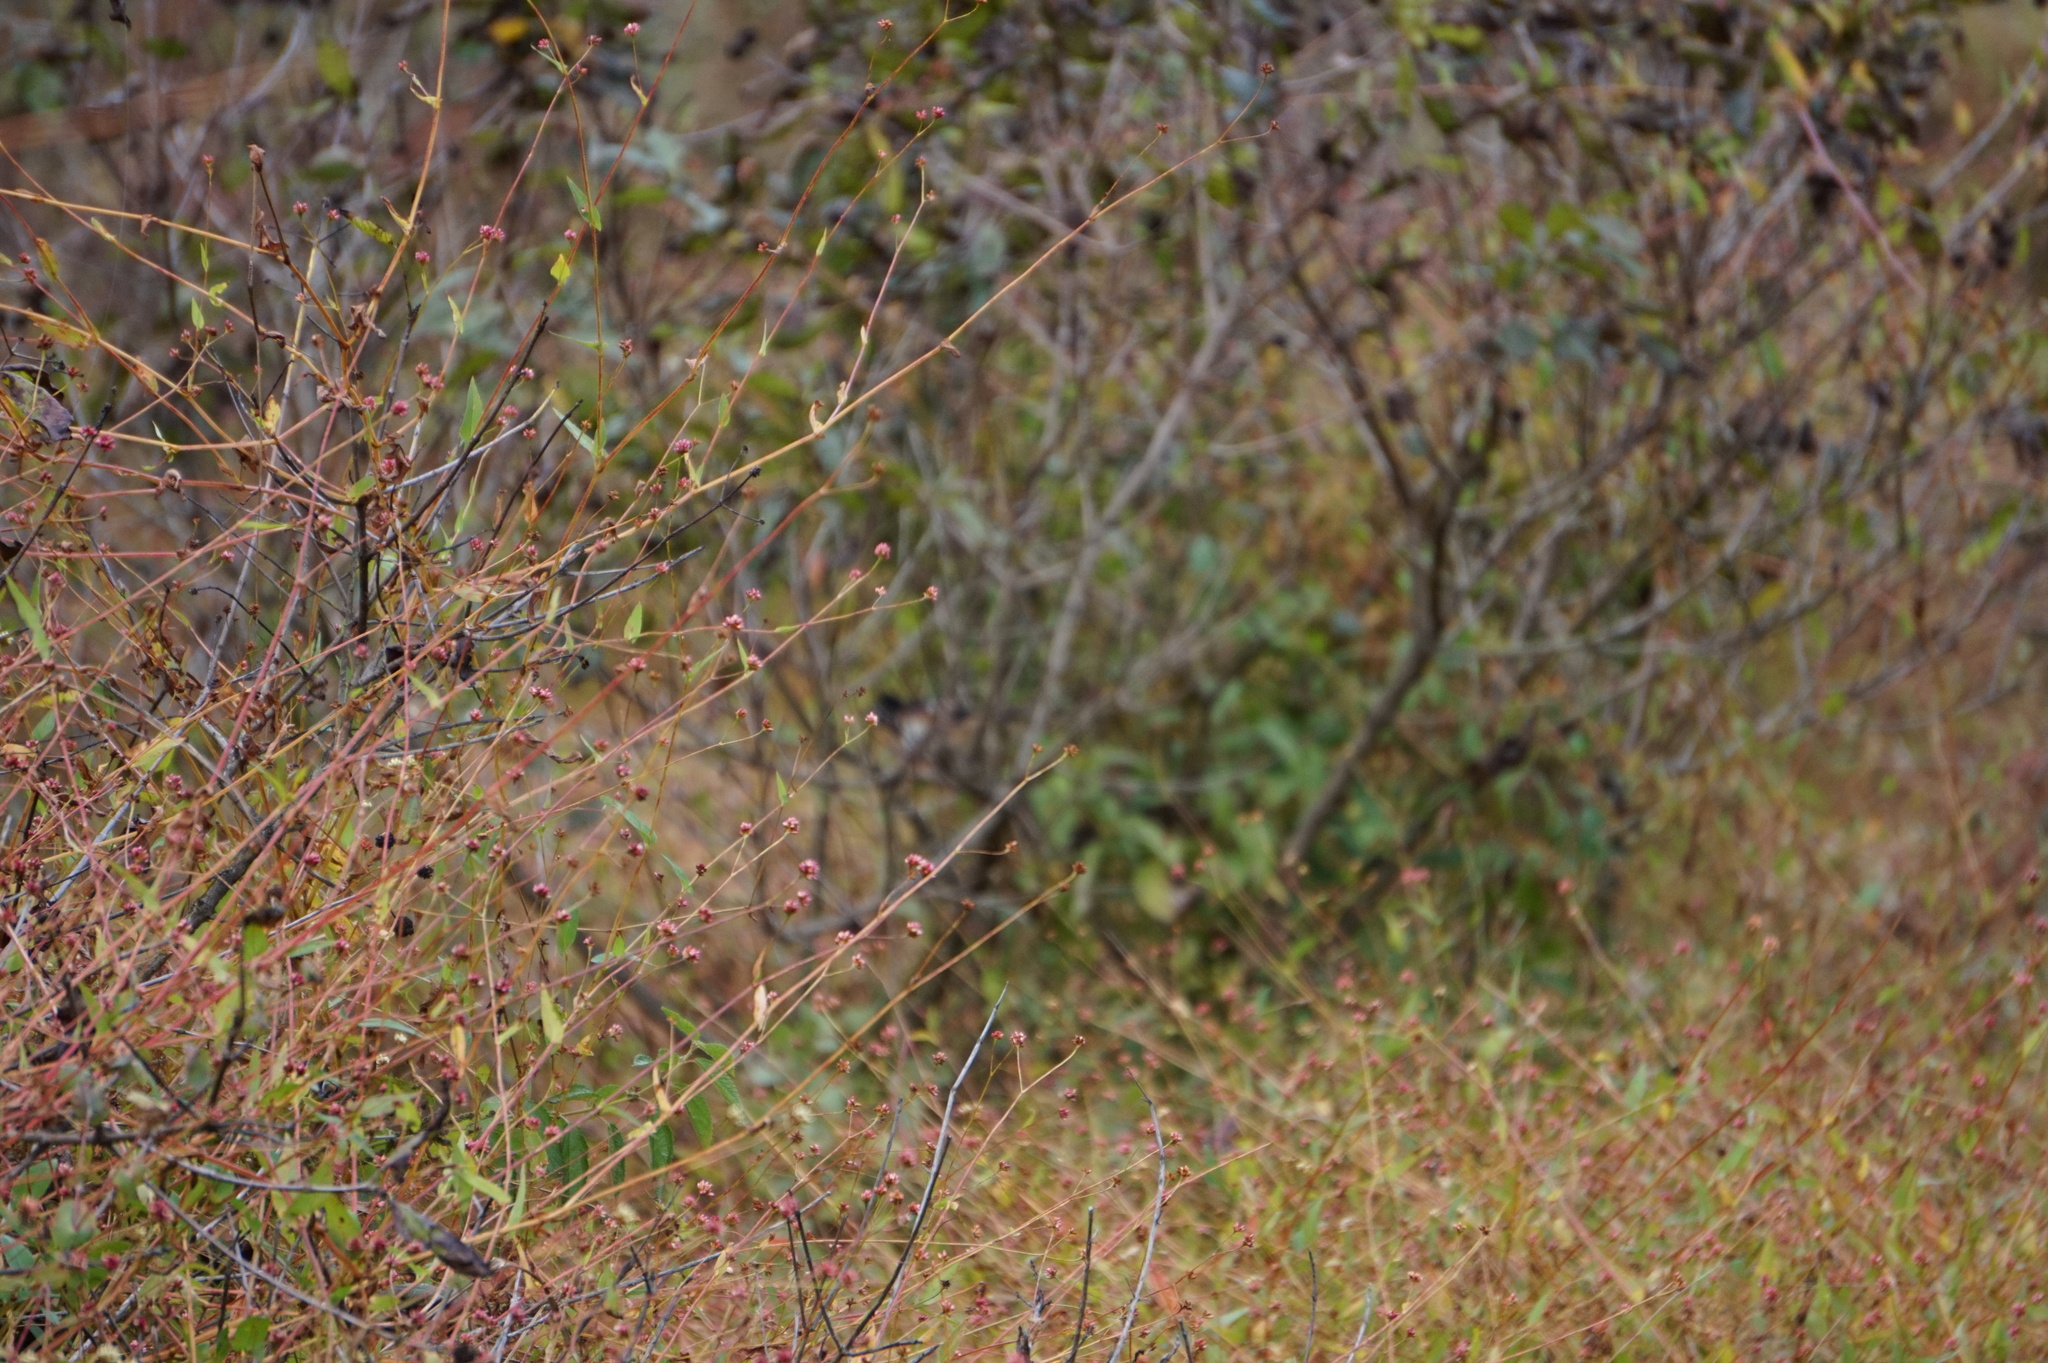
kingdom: Plantae
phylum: Tracheophyta
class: Magnoliopsida
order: Caryophyllales
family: Polygonaceae
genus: Persicaria
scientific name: Persicaria sagittata
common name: American tearthumb
